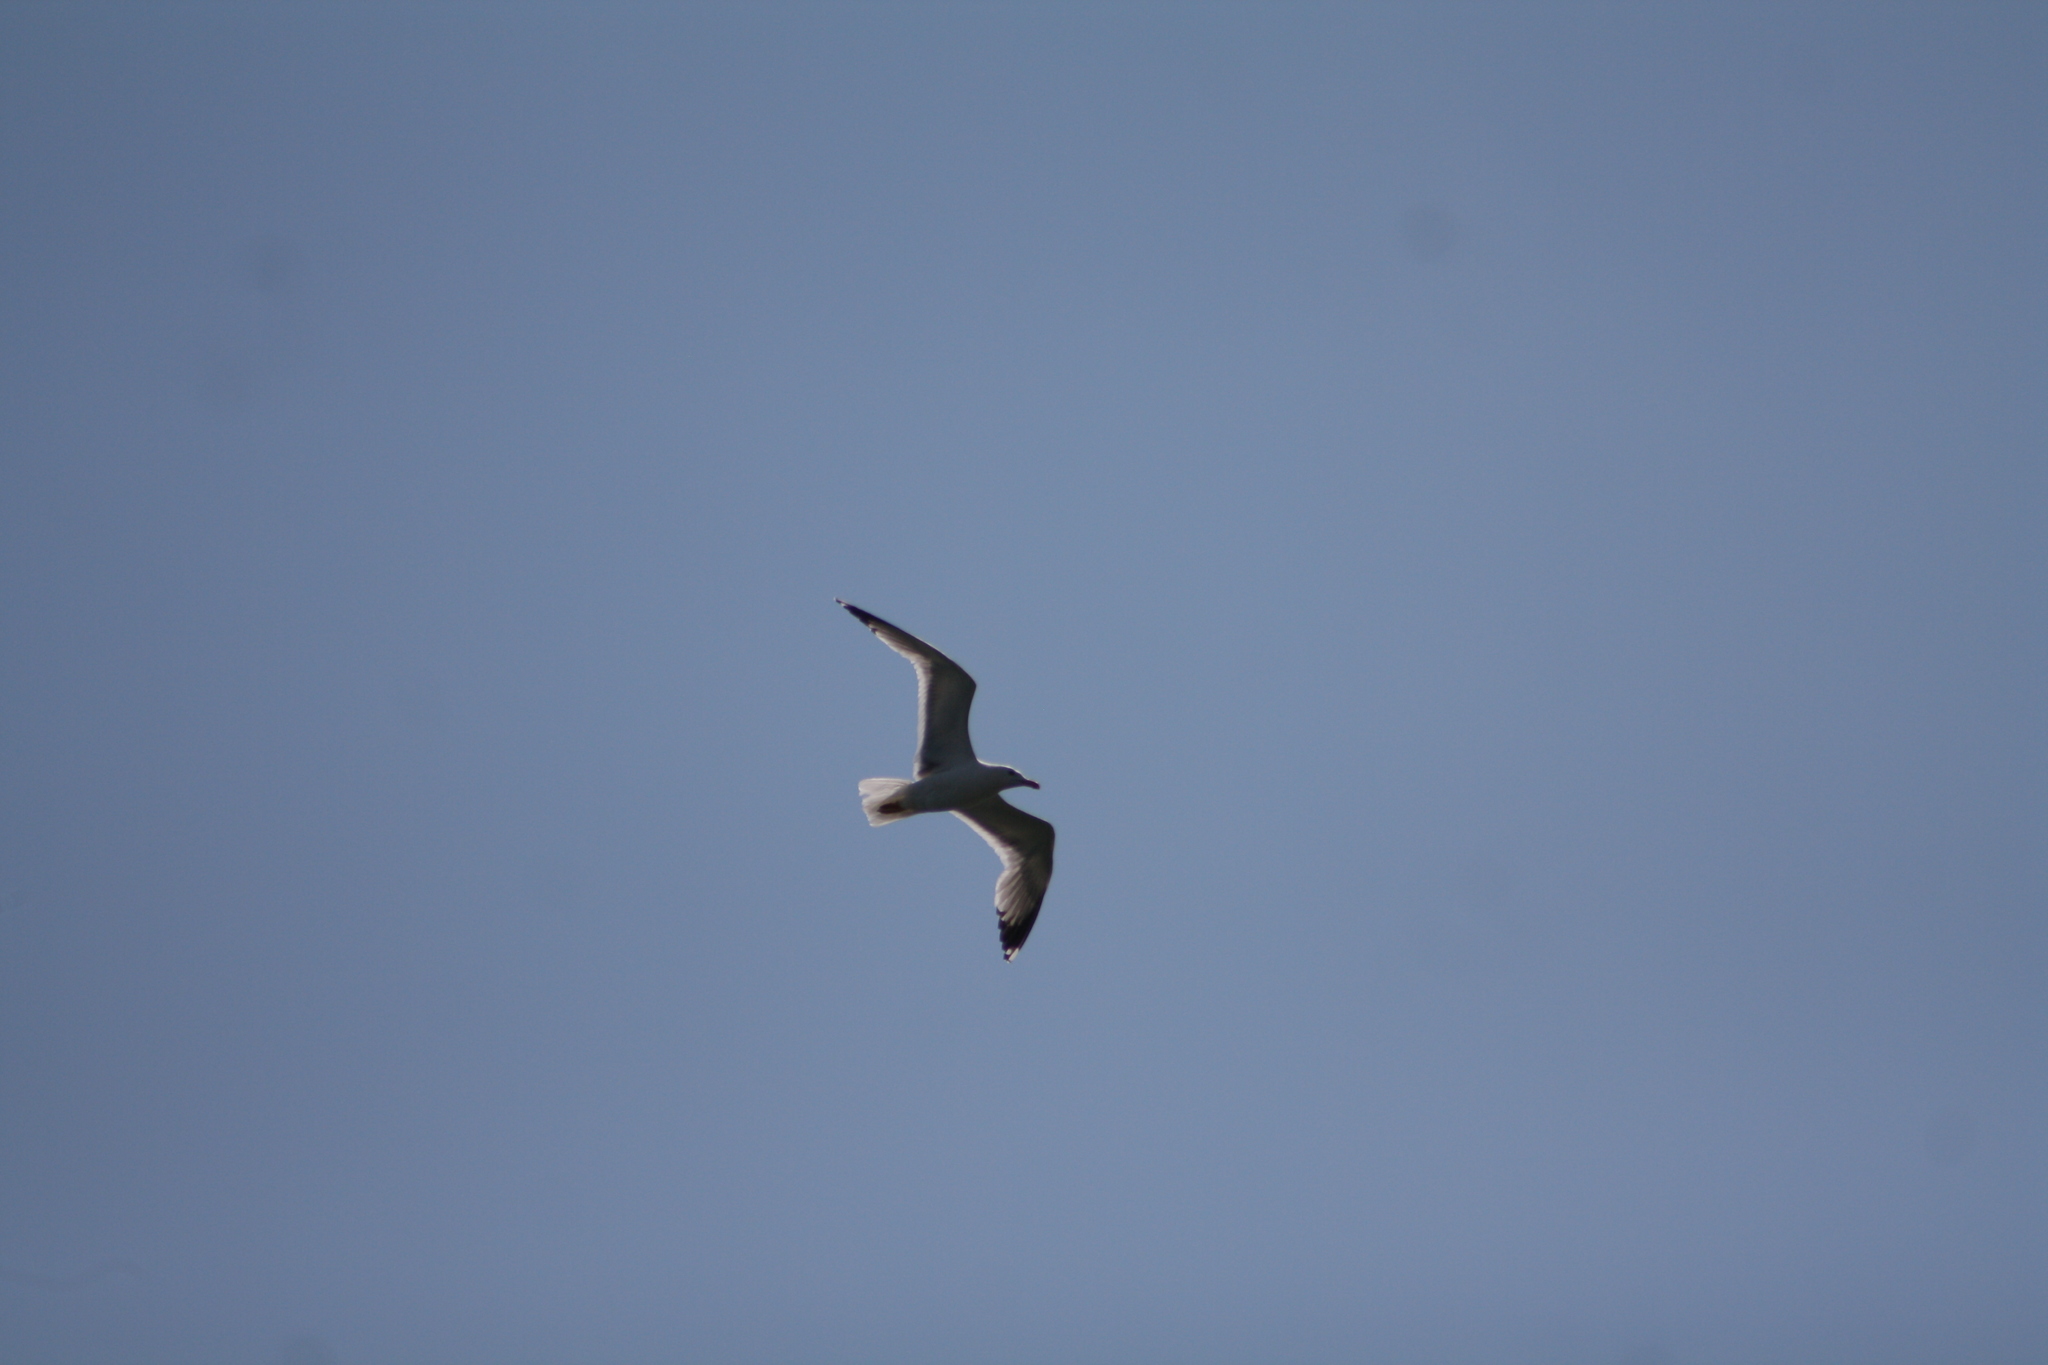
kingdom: Animalia
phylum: Chordata
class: Aves
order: Charadriiformes
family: Laridae
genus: Larus
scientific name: Larus michahellis
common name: Yellow-legged gull
